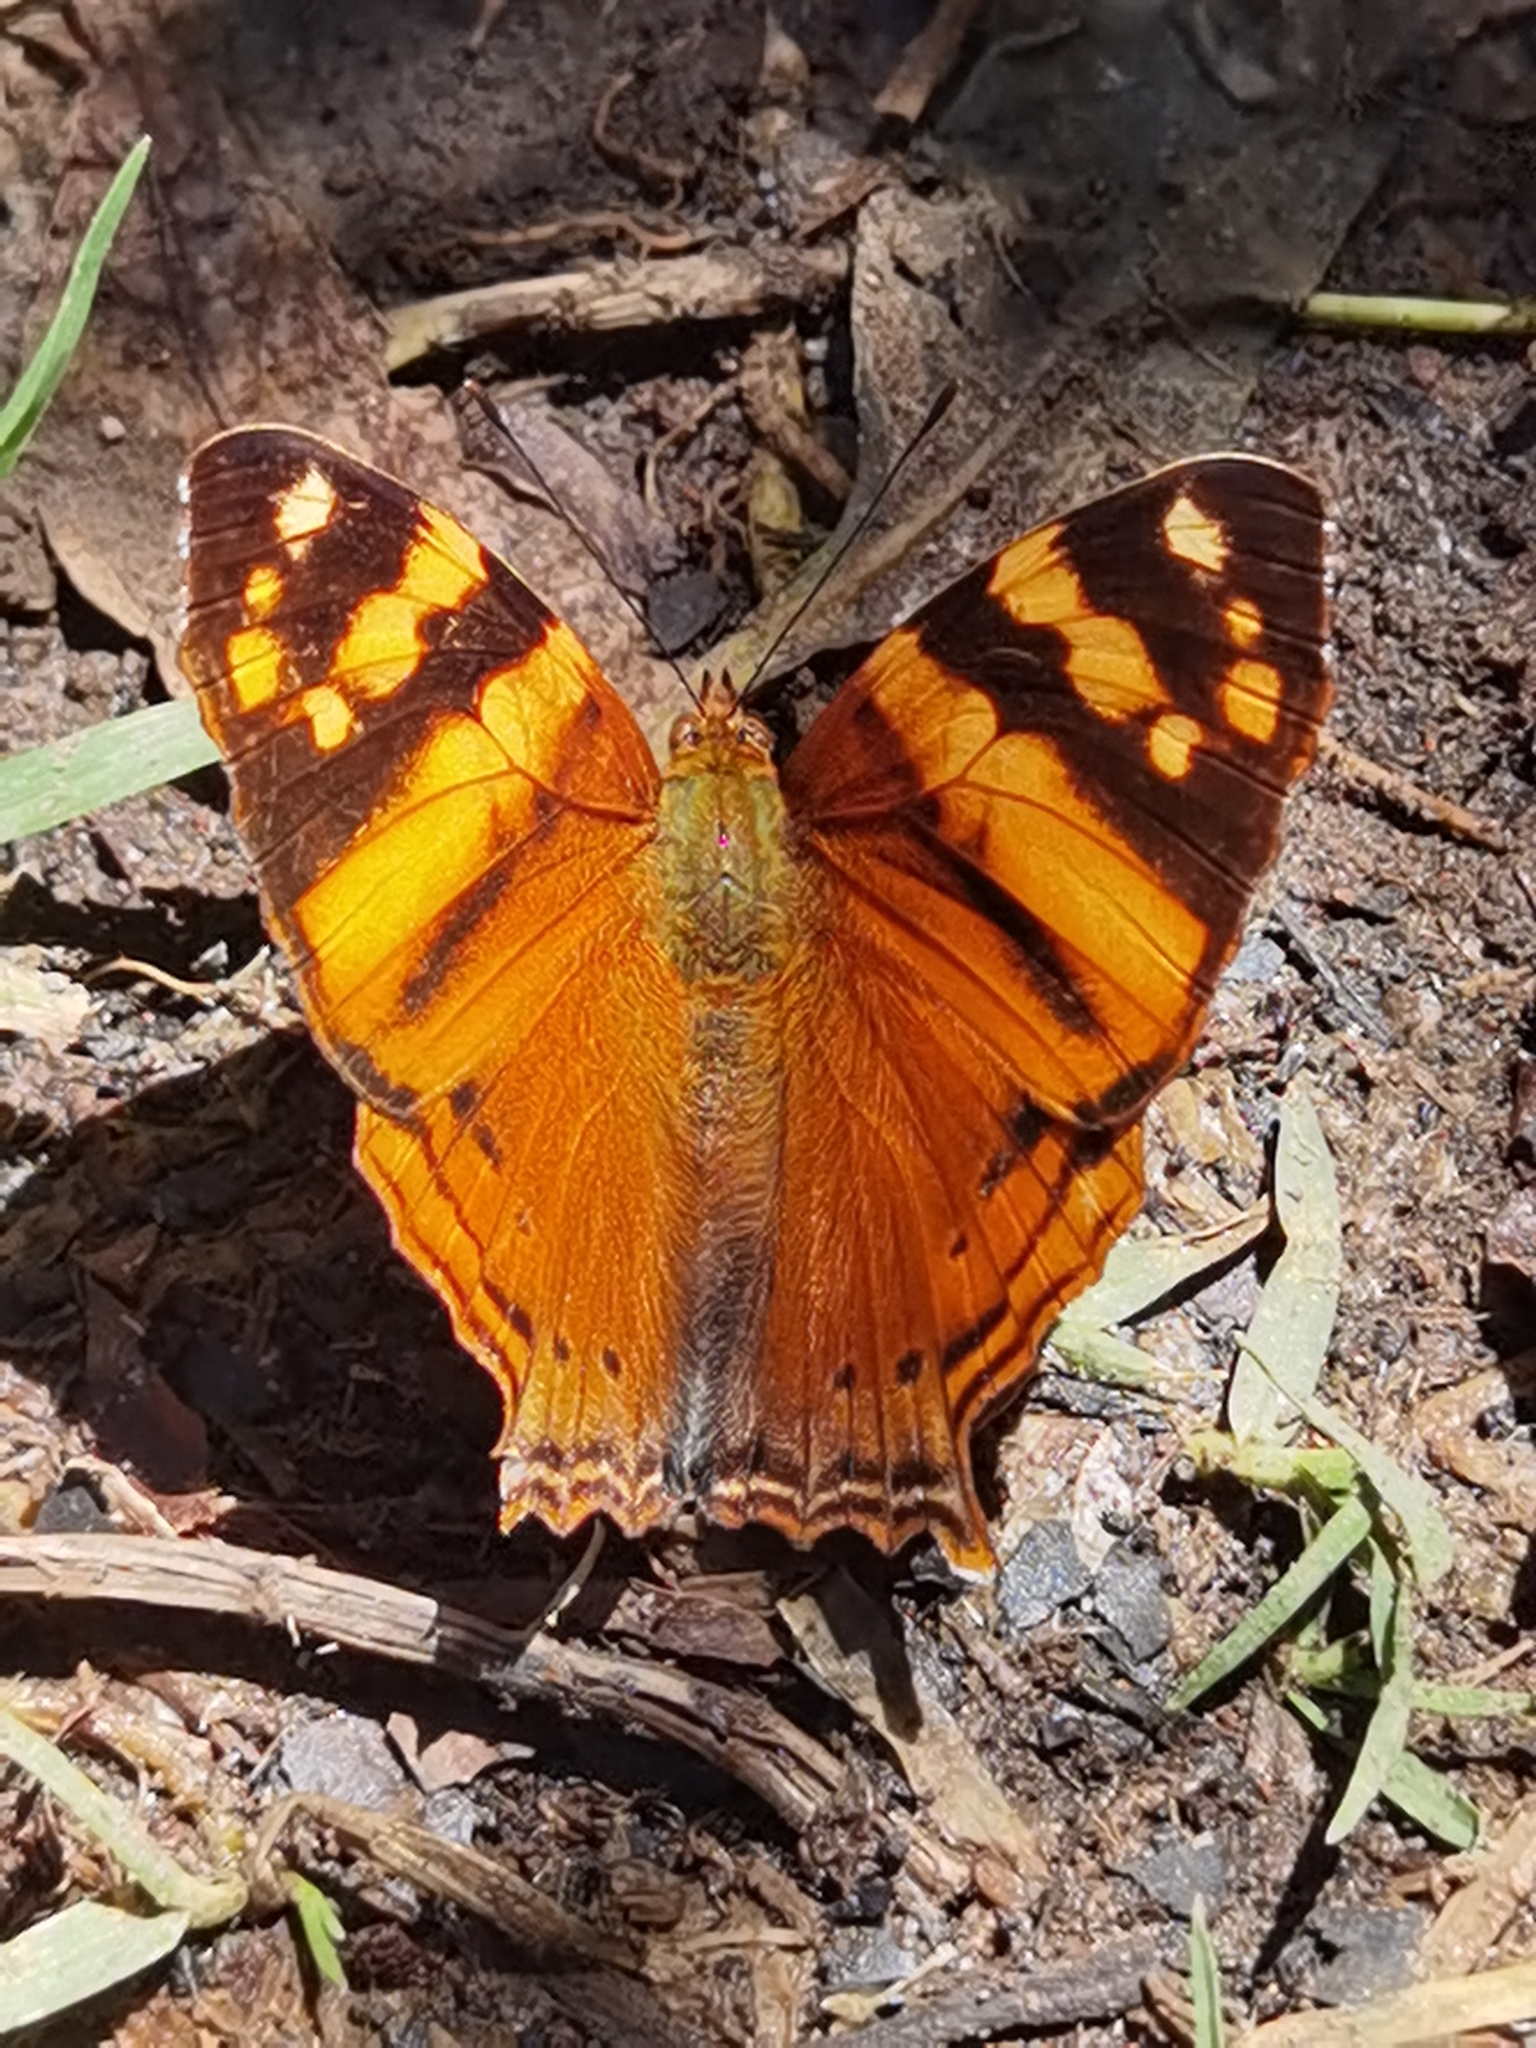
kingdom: Animalia
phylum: Arthropoda
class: Insecta
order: Lepidoptera
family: Nymphalidae
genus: Hypanartia
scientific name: Hypanartia lethe
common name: Orange mapwing
